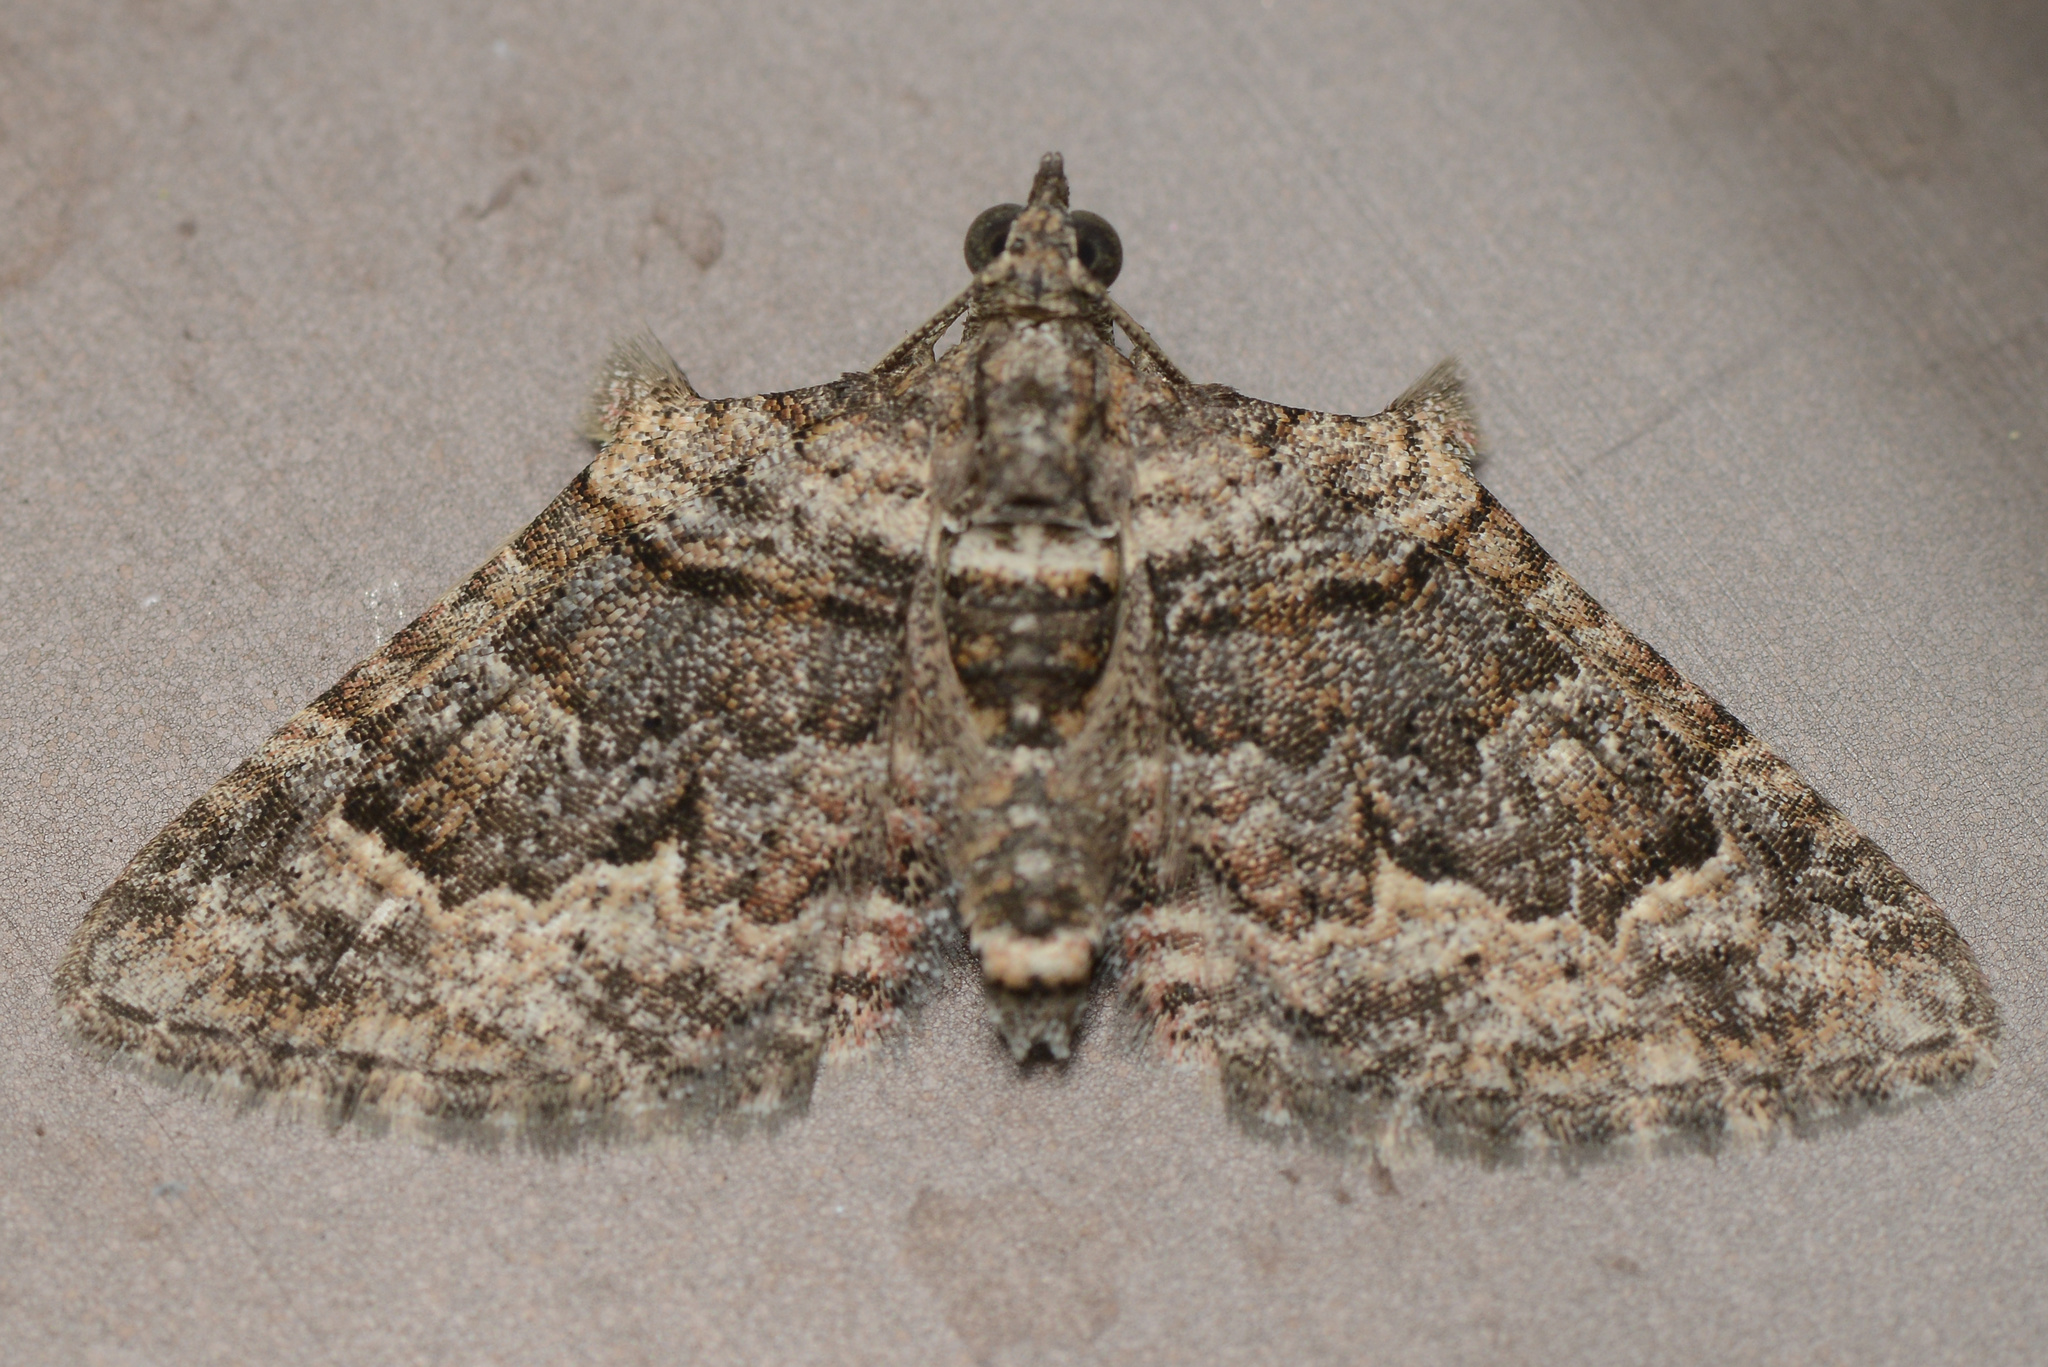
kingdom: Animalia
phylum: Arthropoda
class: Insecta
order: Lepidoptera
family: Geometridae
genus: Phrissogonus
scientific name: Phrissogonus laticostata
